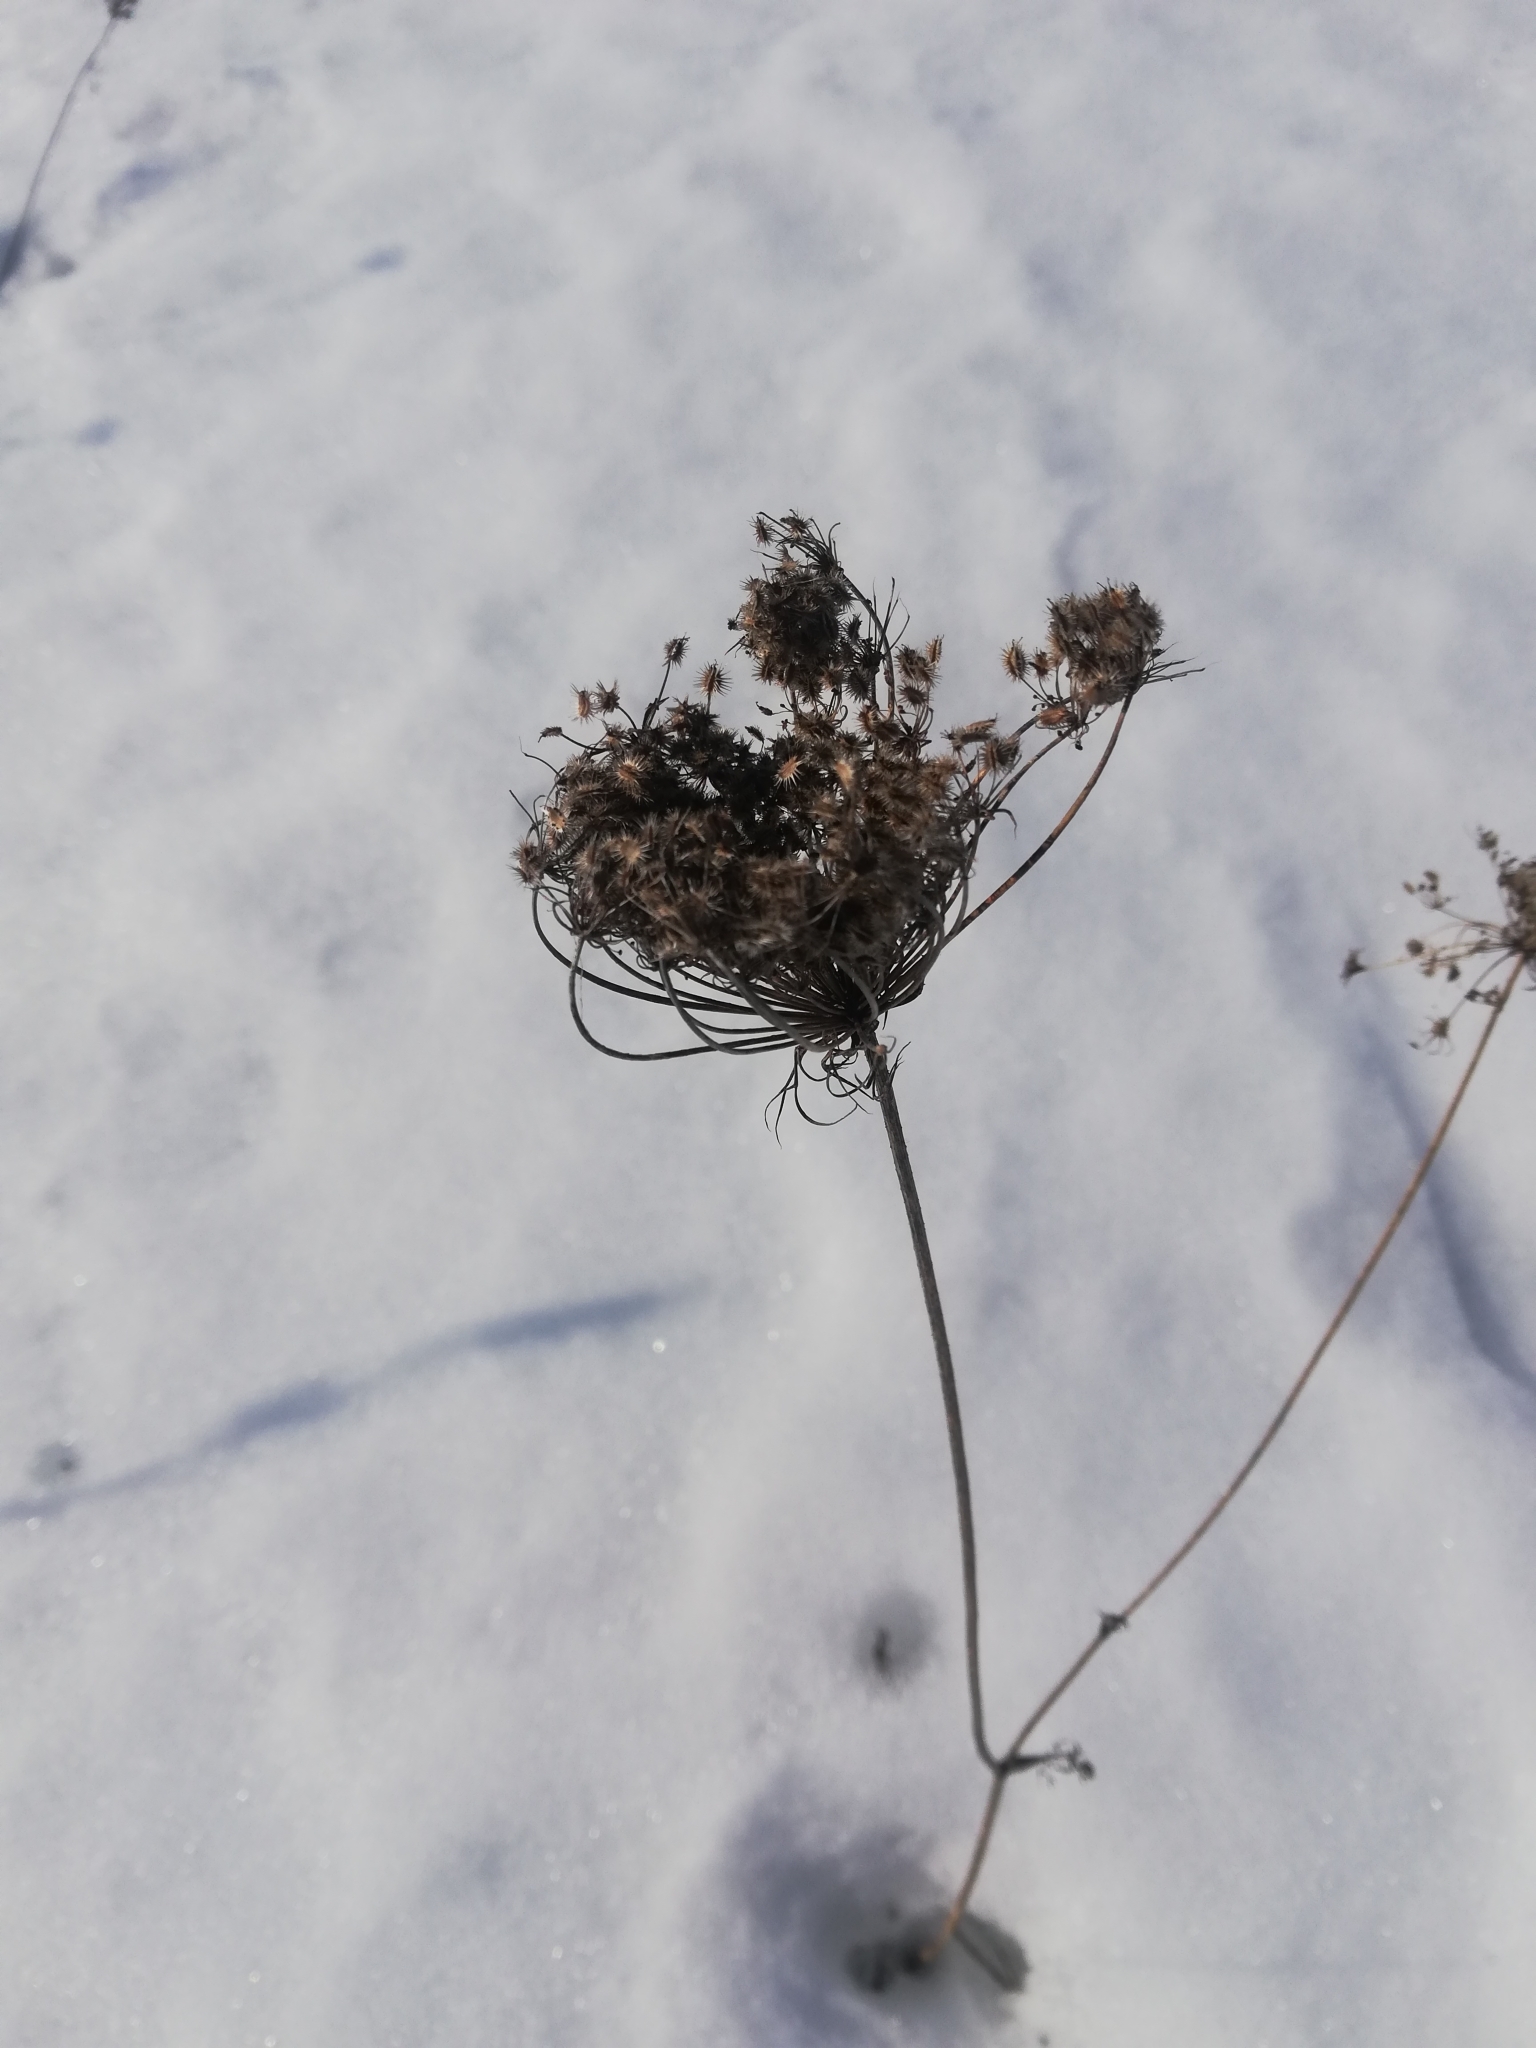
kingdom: Plantae
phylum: Tracheophyta
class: Magnoliopsida
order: Apiales
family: Apiaceae
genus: Daucus
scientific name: Daucus carota
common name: Wild carrot
